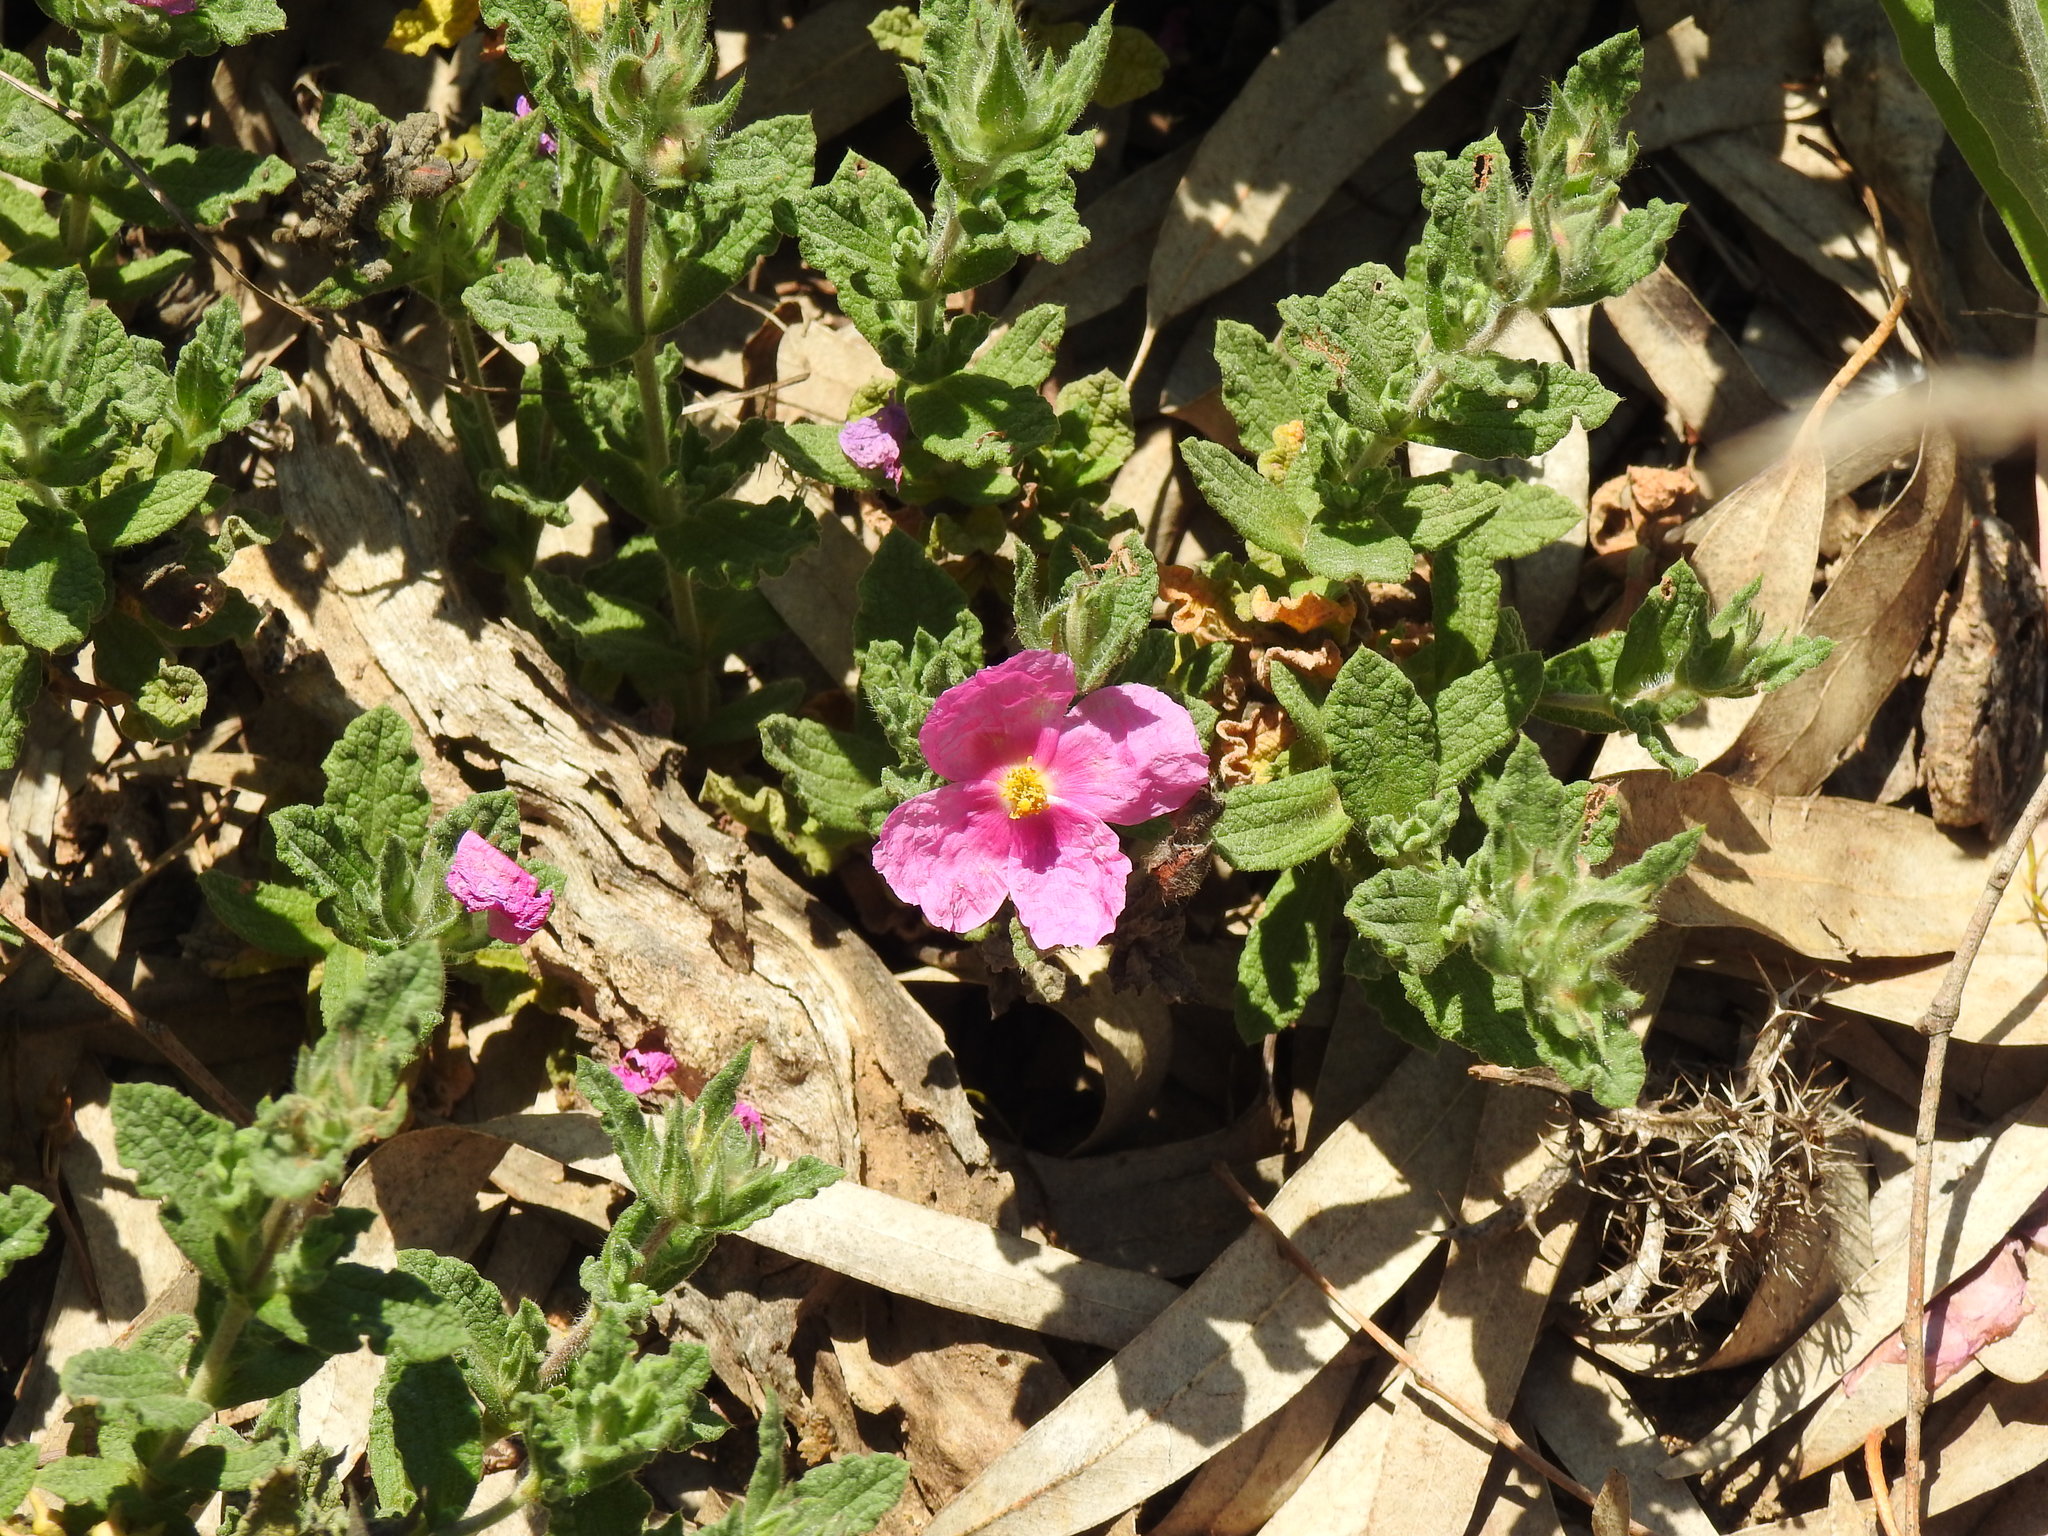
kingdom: Plantae
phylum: Tracheophyta
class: Magnoliopsida
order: Malvales
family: Cistaceae
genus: Cistus
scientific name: Cistus crispus
